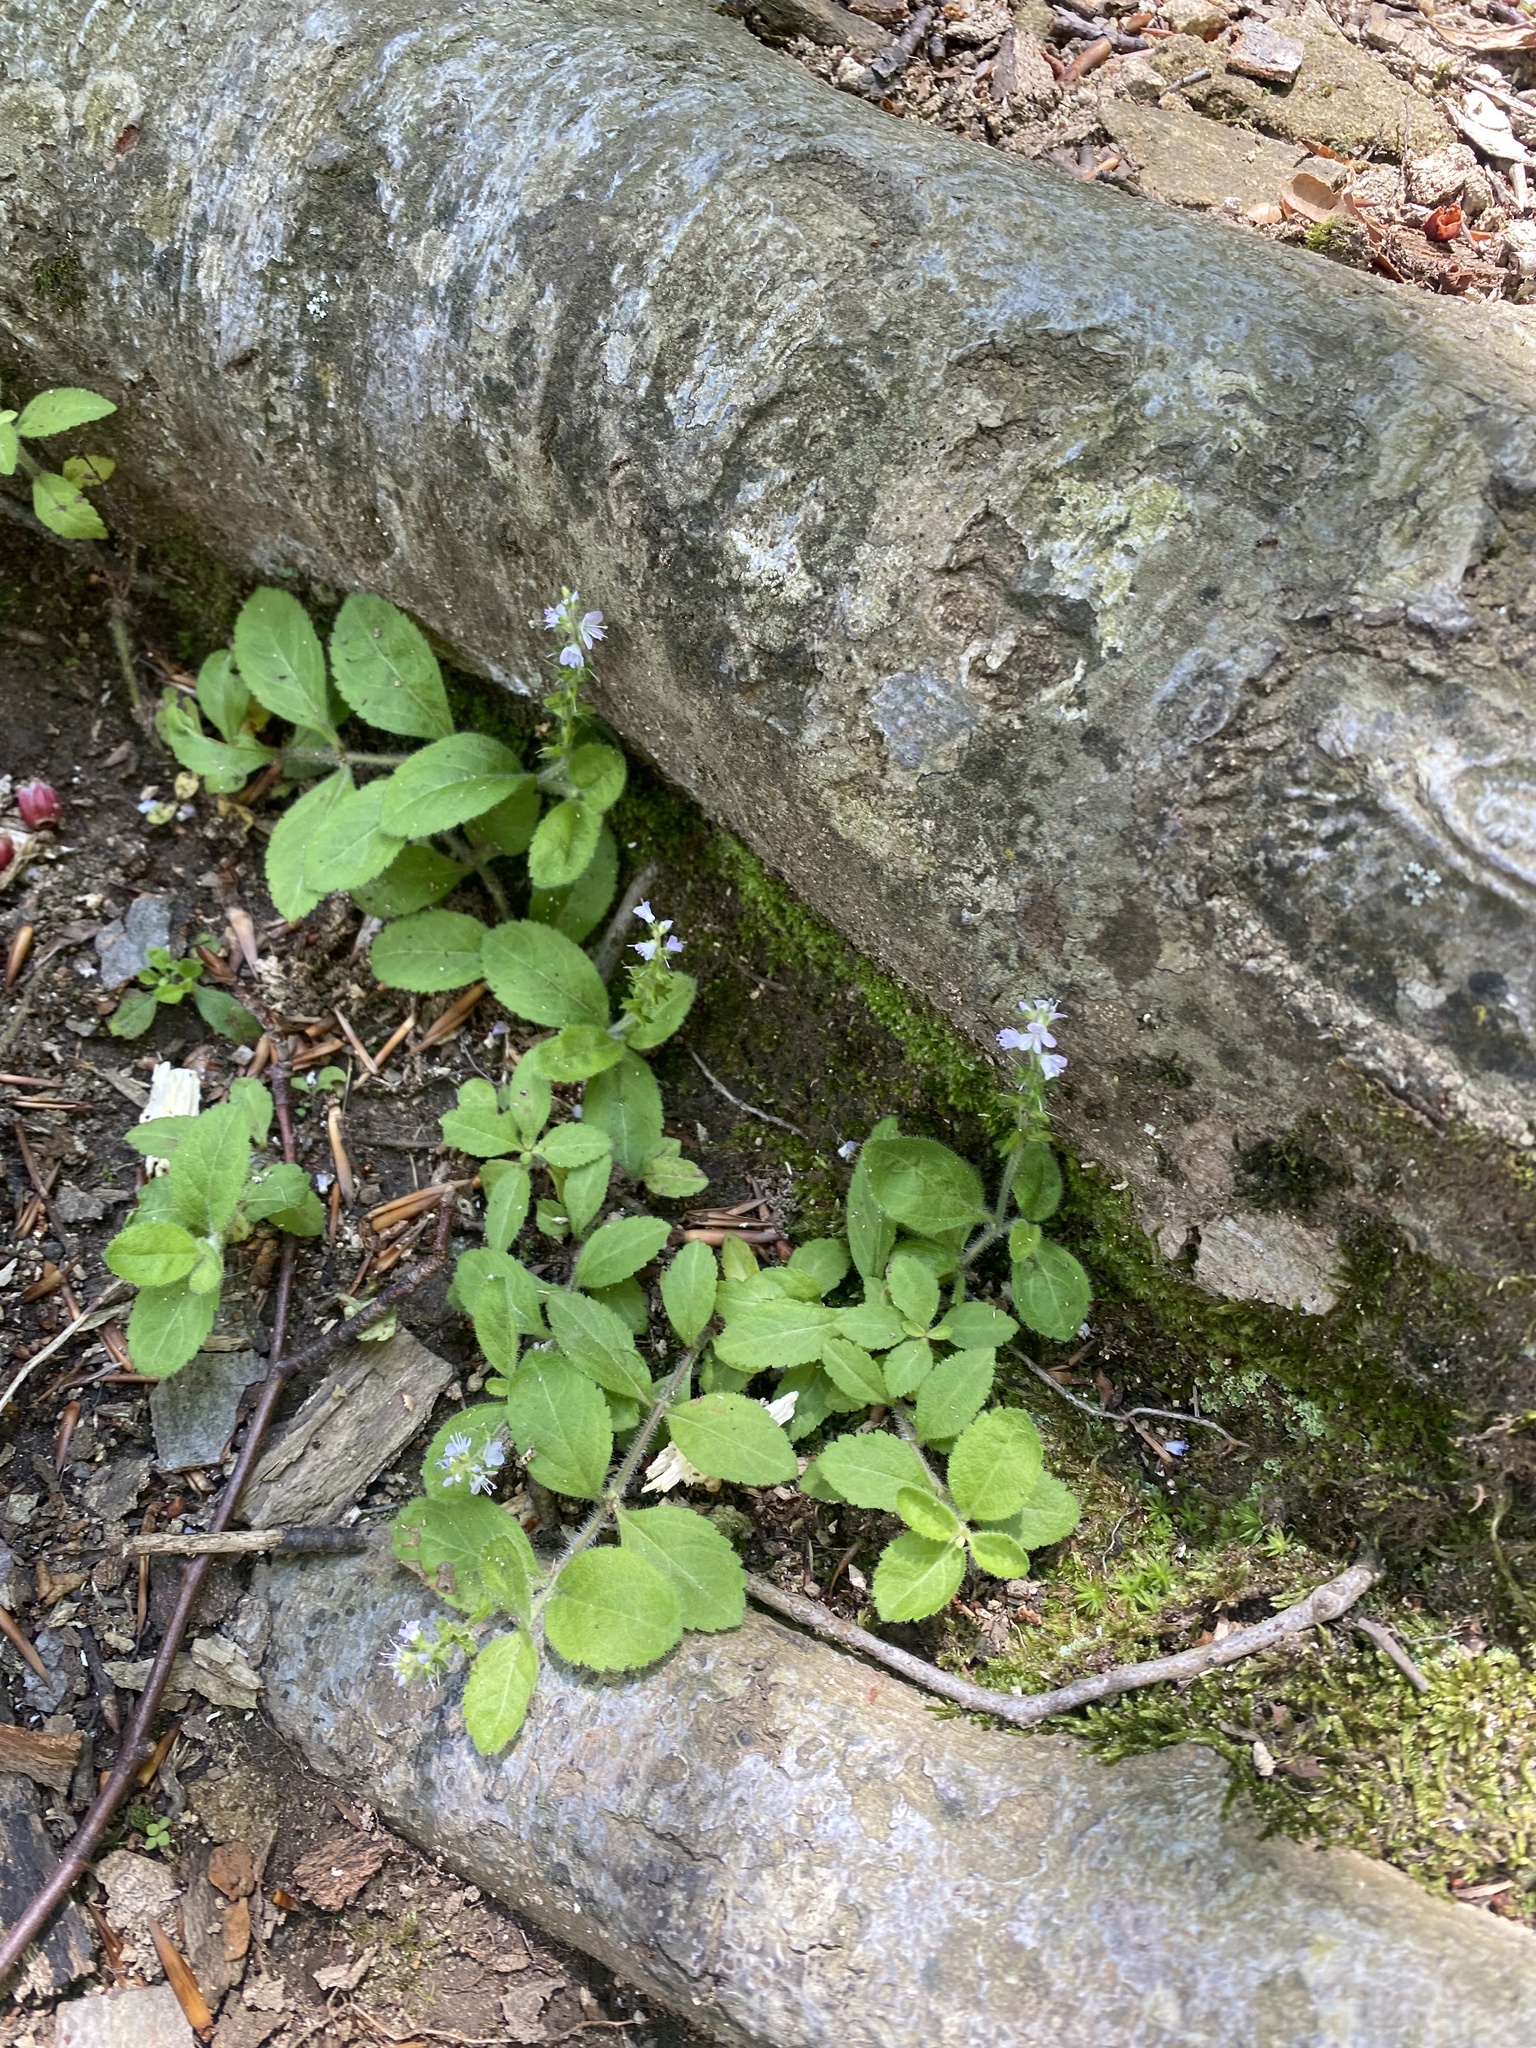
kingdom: Plantae
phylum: Tracheophyta
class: Magnoliopsida
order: Lamiales
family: Plantaginaceae
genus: Veronica
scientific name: Veronica officinalis
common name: Common speedwell
